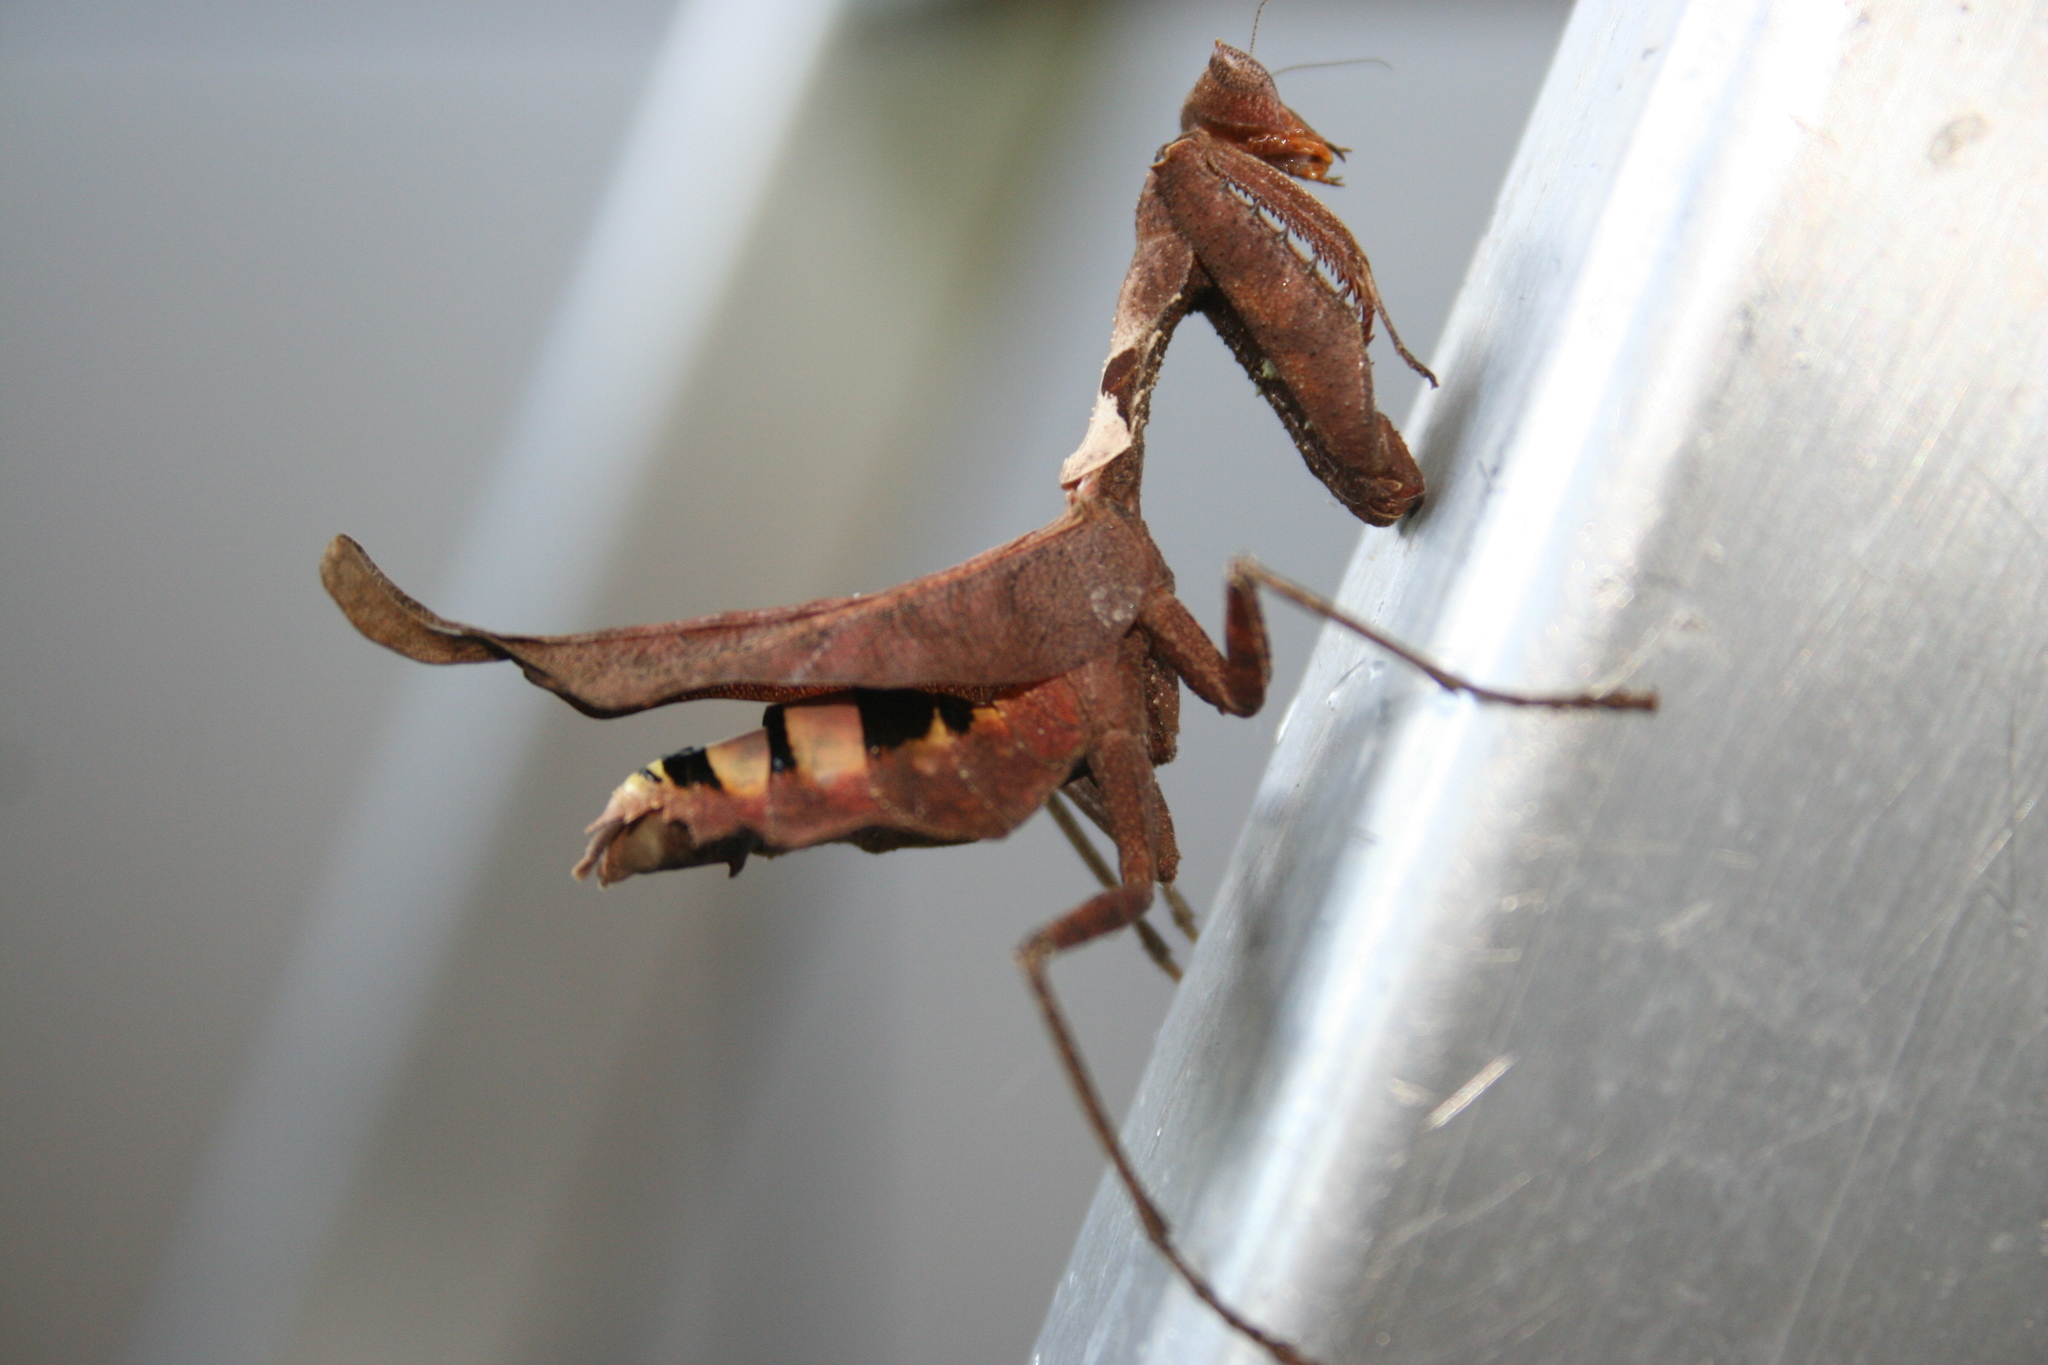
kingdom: Animalia
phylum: Arthropoda
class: Insecta
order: Mantodea
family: Acanthopidae
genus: Acanthops
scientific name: Acanthops
